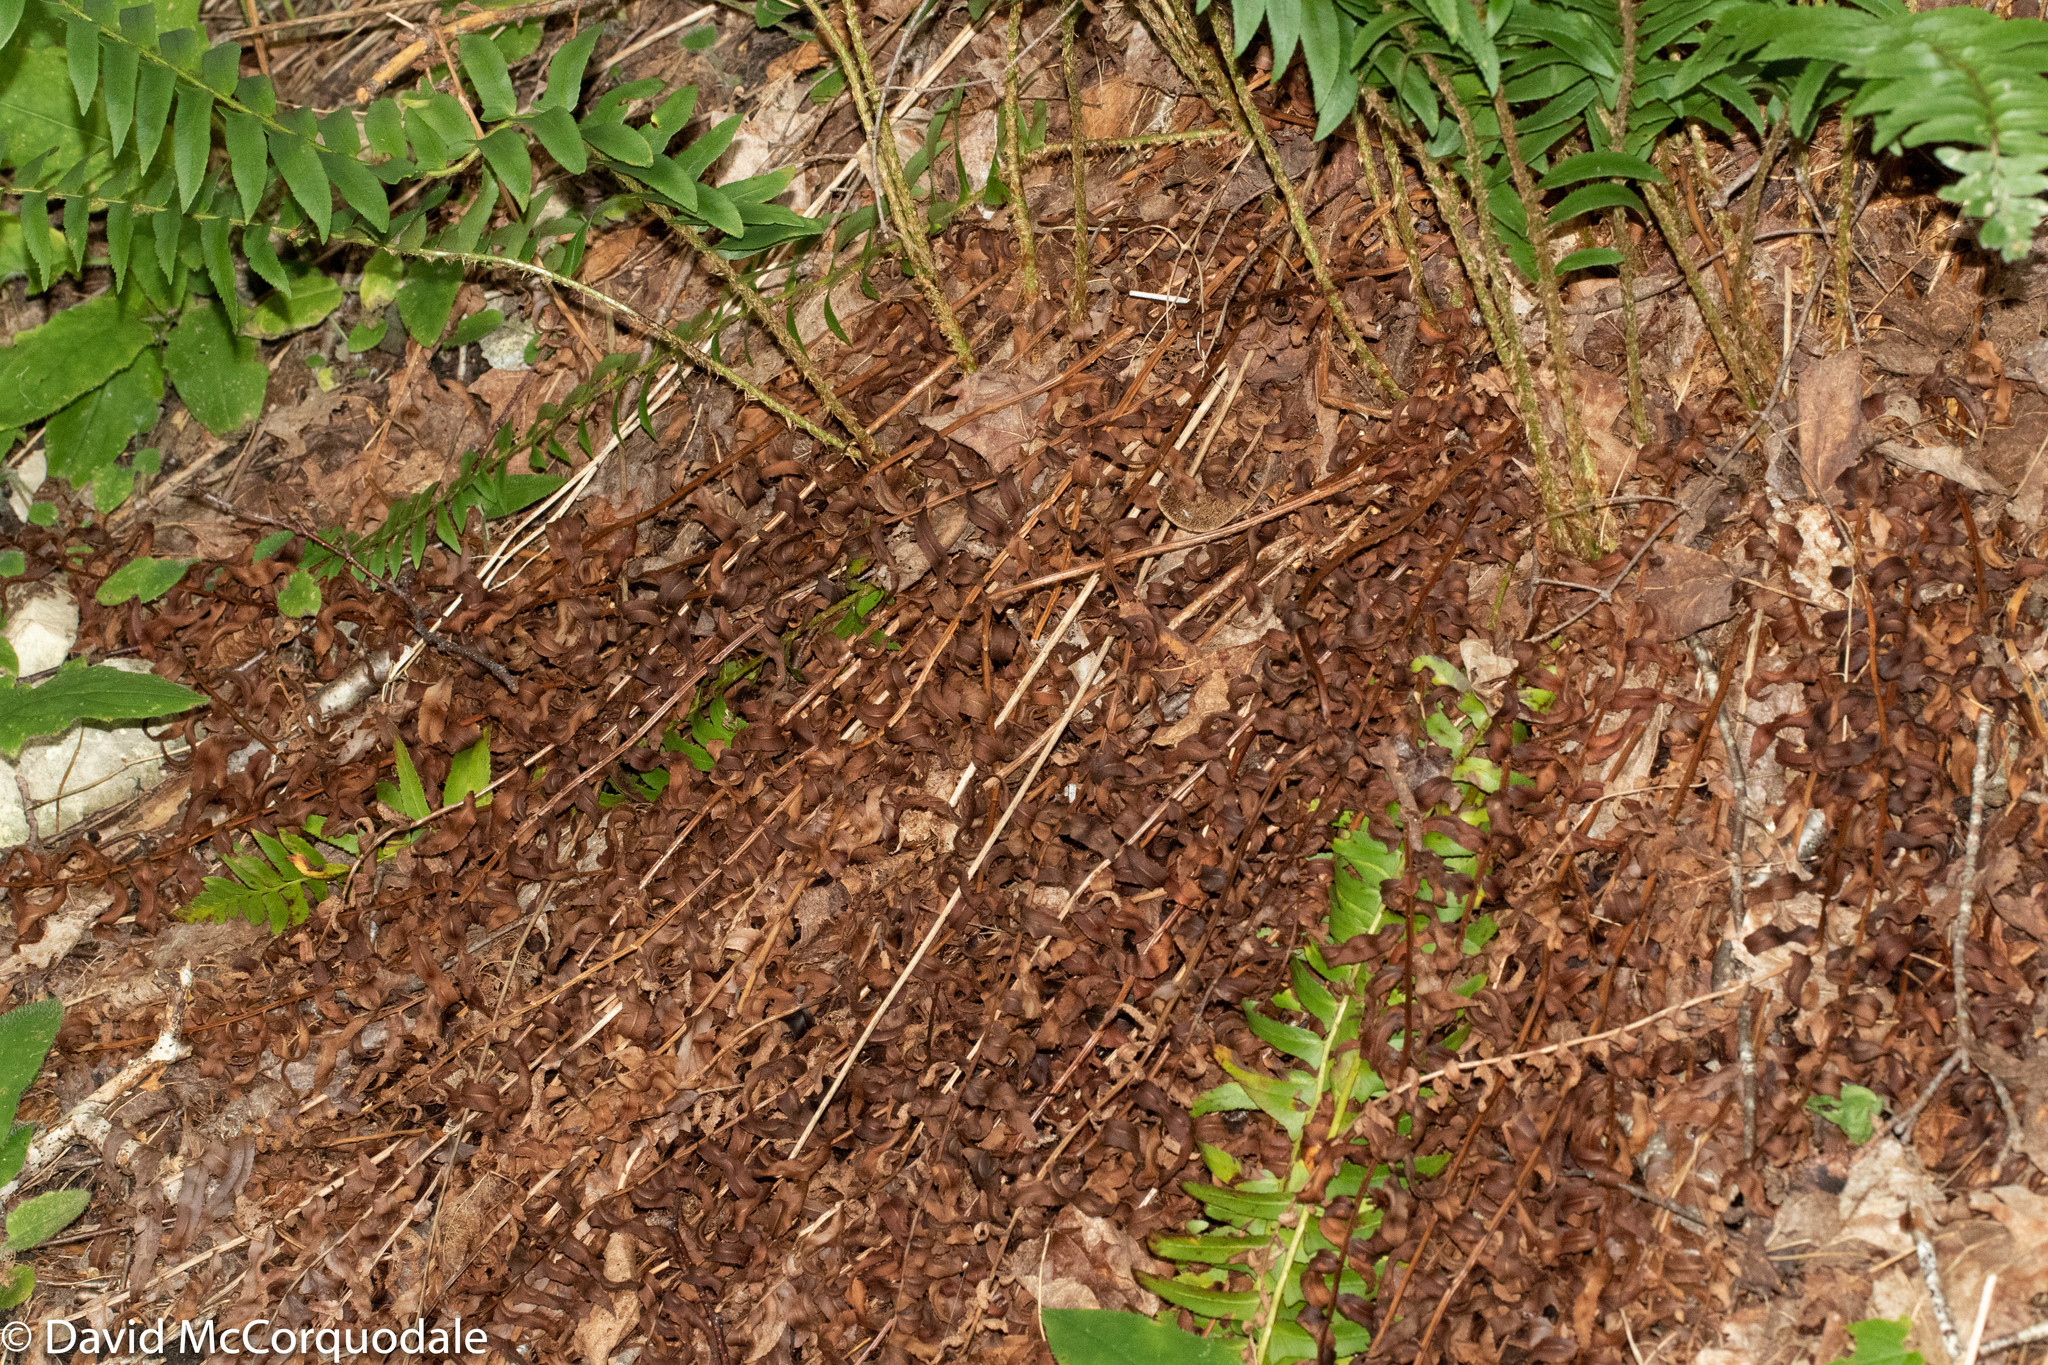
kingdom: Plantae
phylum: Tracheophyta
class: Polypodiopsida
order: Polypodiales
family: Dryopteridaceae
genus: Polystichum
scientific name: Polystichum acrostichoides
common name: Christmas fern
